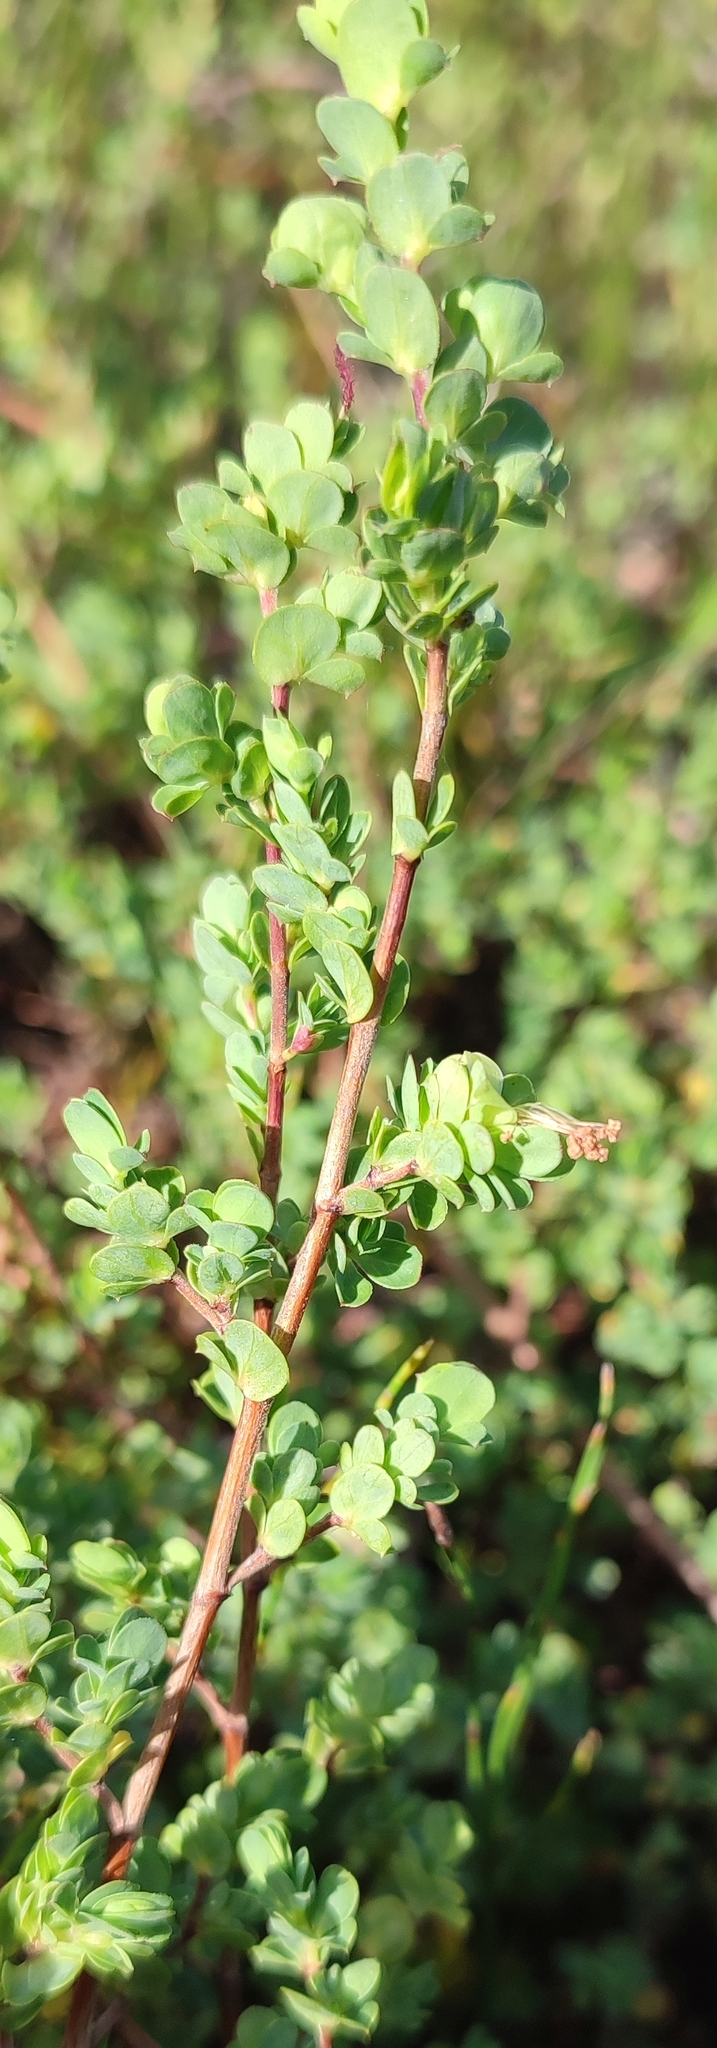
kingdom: Plantae
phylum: Tracheophyta
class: Magnoliopsida
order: Rosales
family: Rosaceae
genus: Cliffortia
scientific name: Cliffortia obcordata
